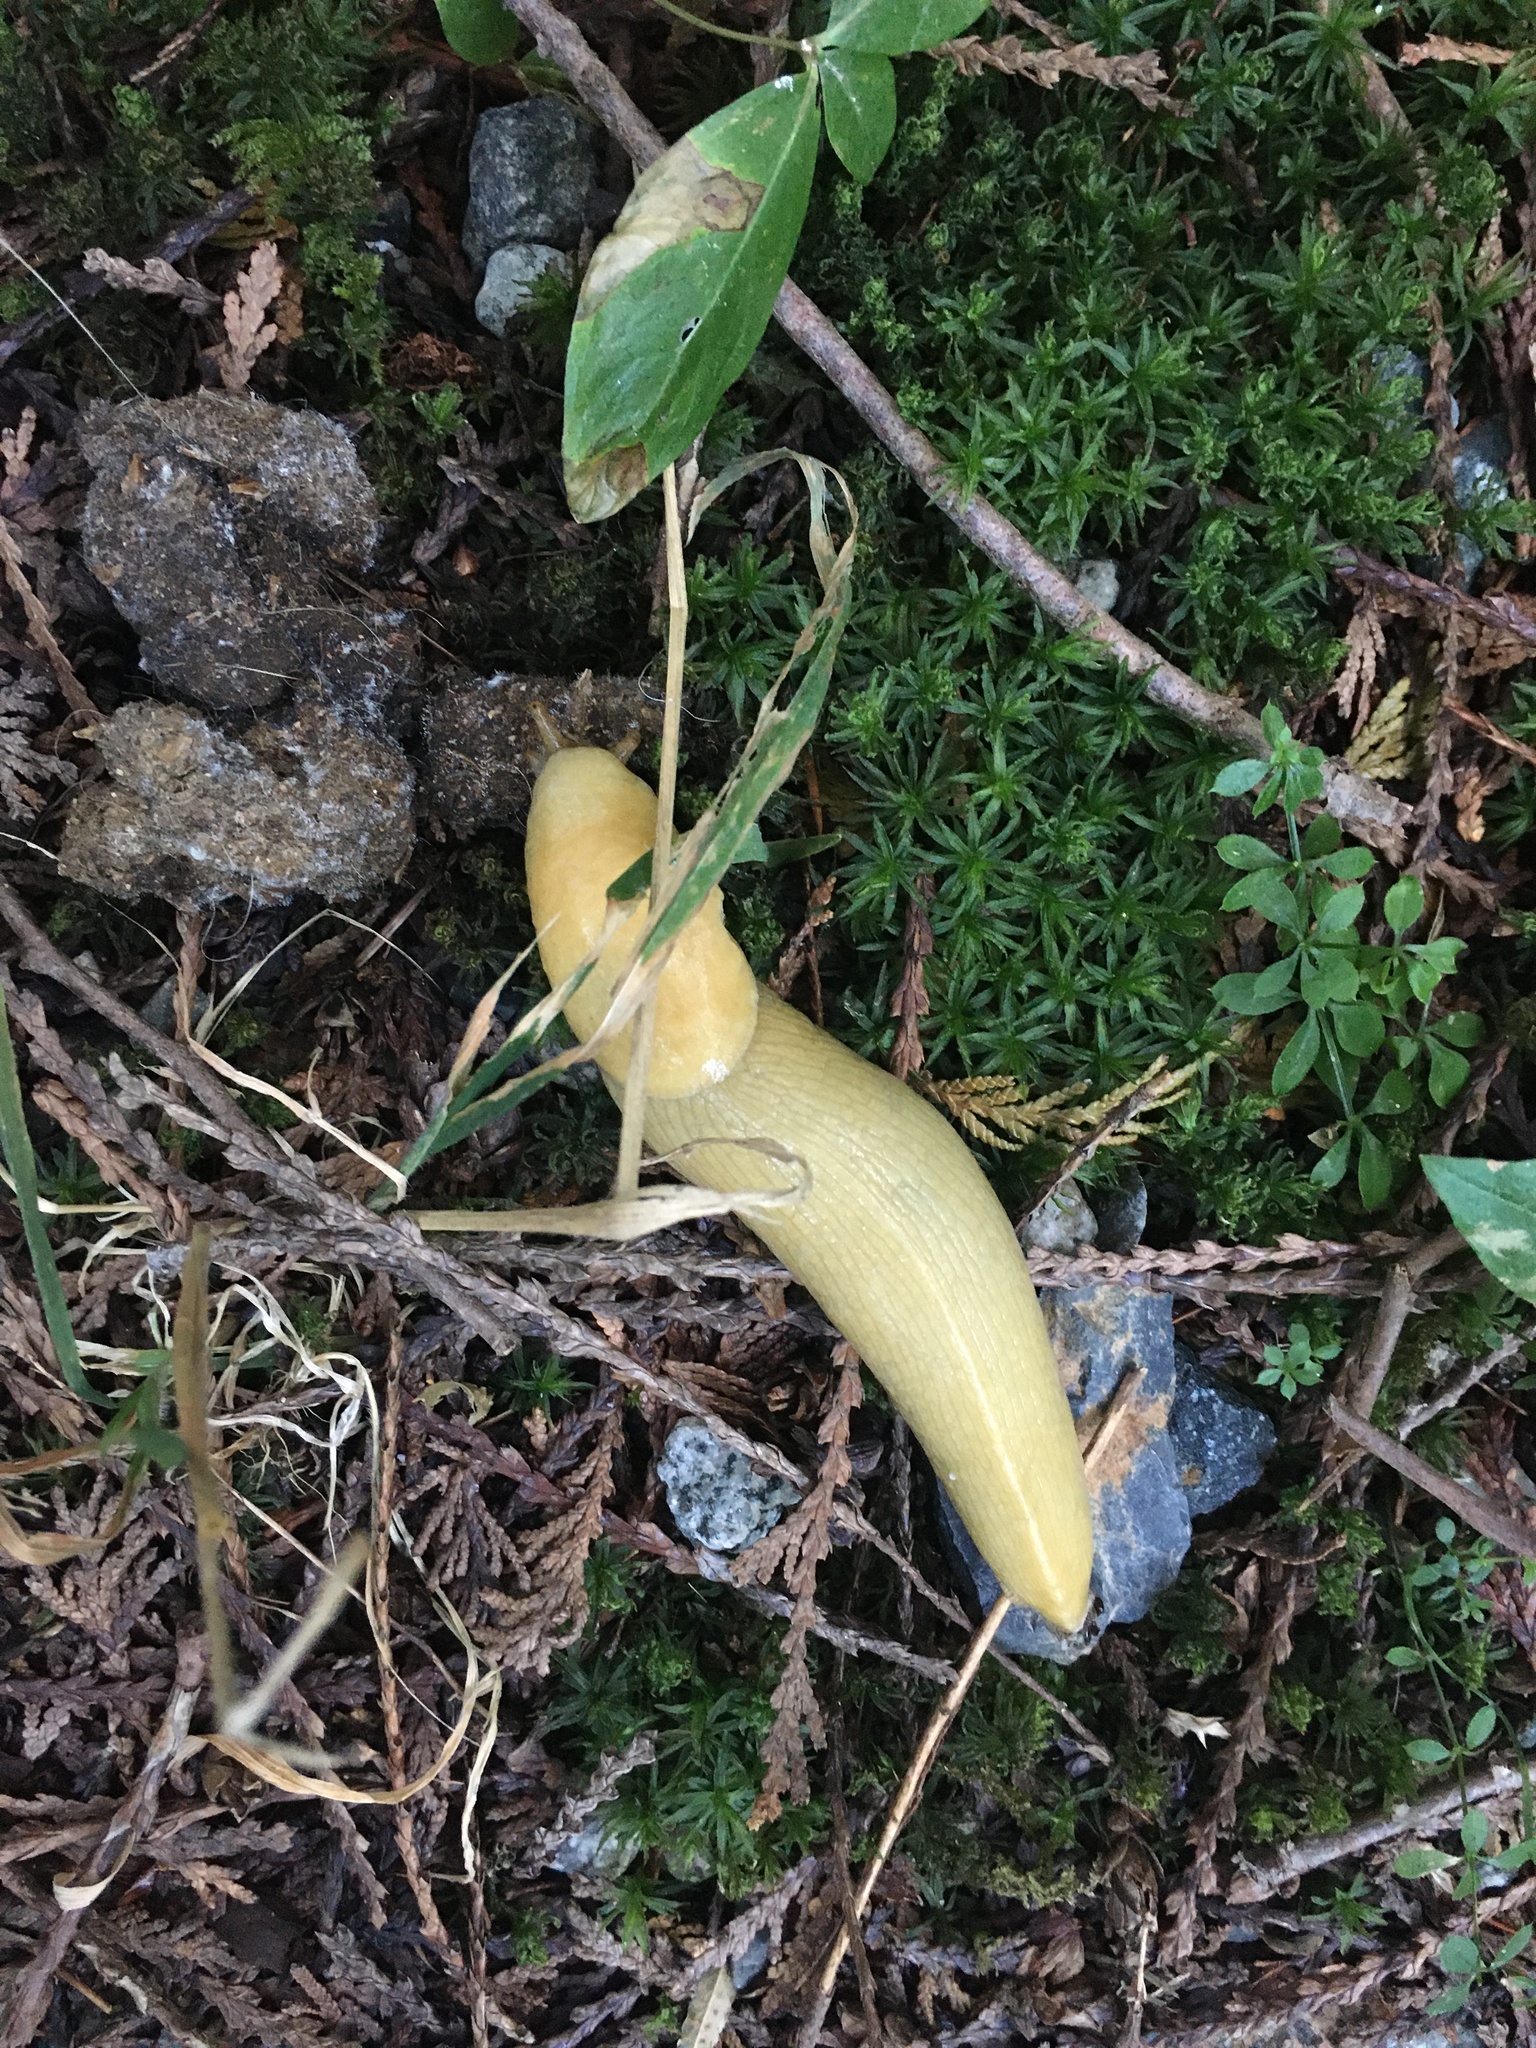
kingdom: Animalia
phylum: Mollusca
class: Gastropoda
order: Stylommatophora
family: Ariolimacidae
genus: Ariolimax
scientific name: Ariolimax columbianus
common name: Pacific banana slug
